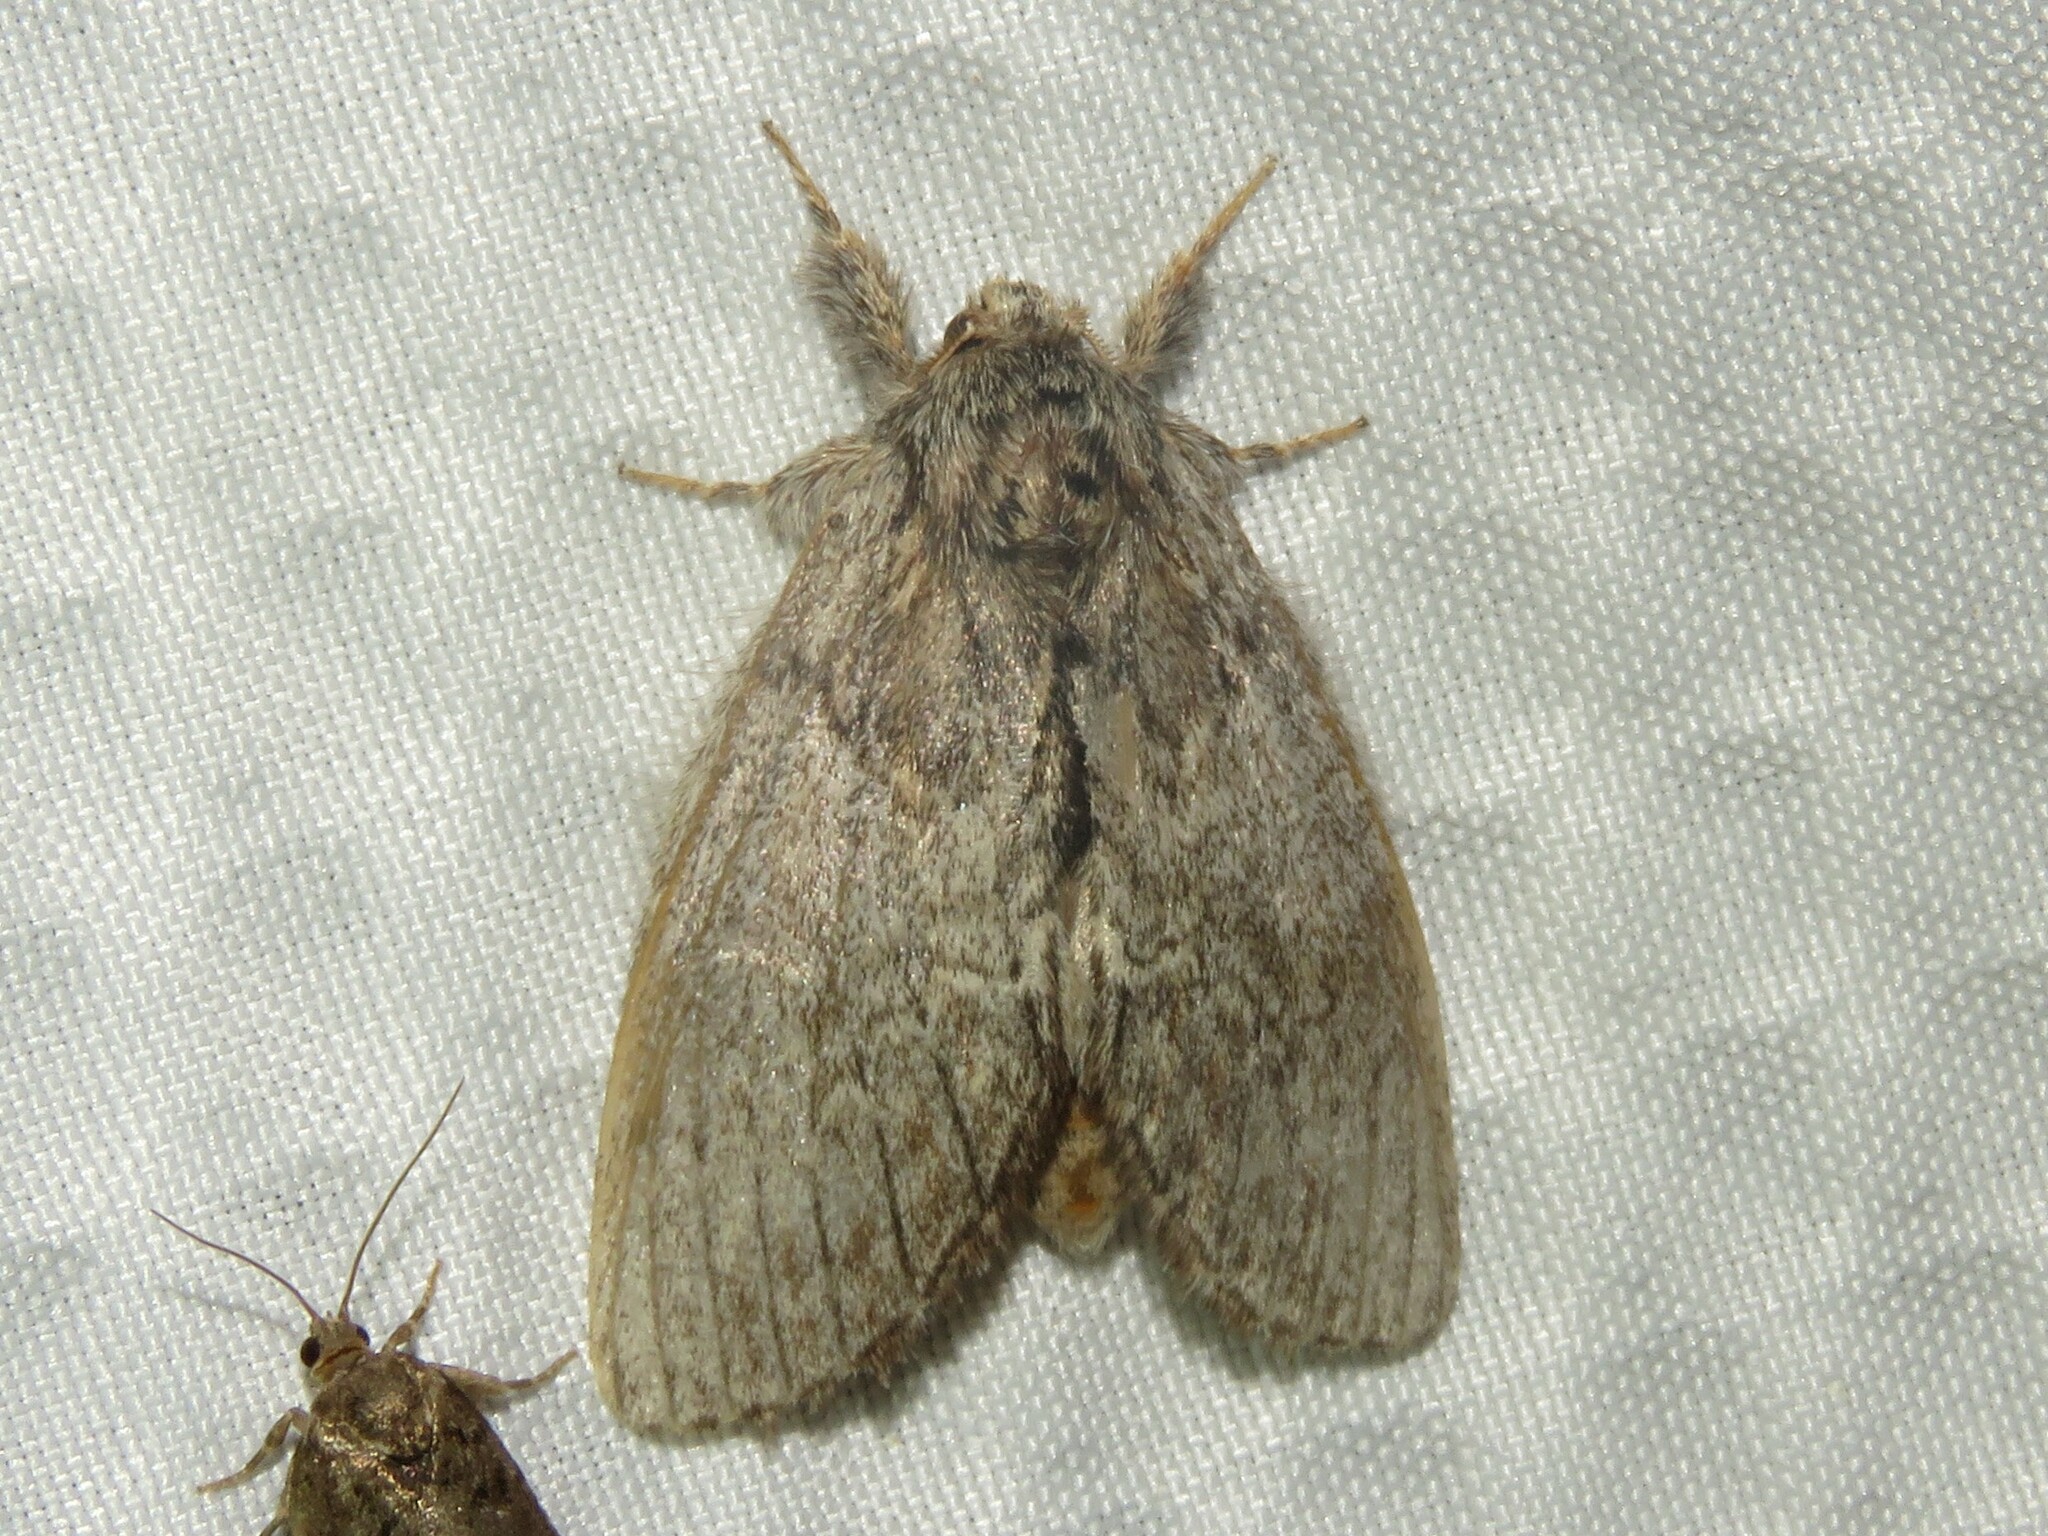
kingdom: Animalia
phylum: Arthropoda
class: Insecta
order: Lepidoptera
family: Notodontidae
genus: Peridea
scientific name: Peridea basitriens
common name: Oval-based prominent
